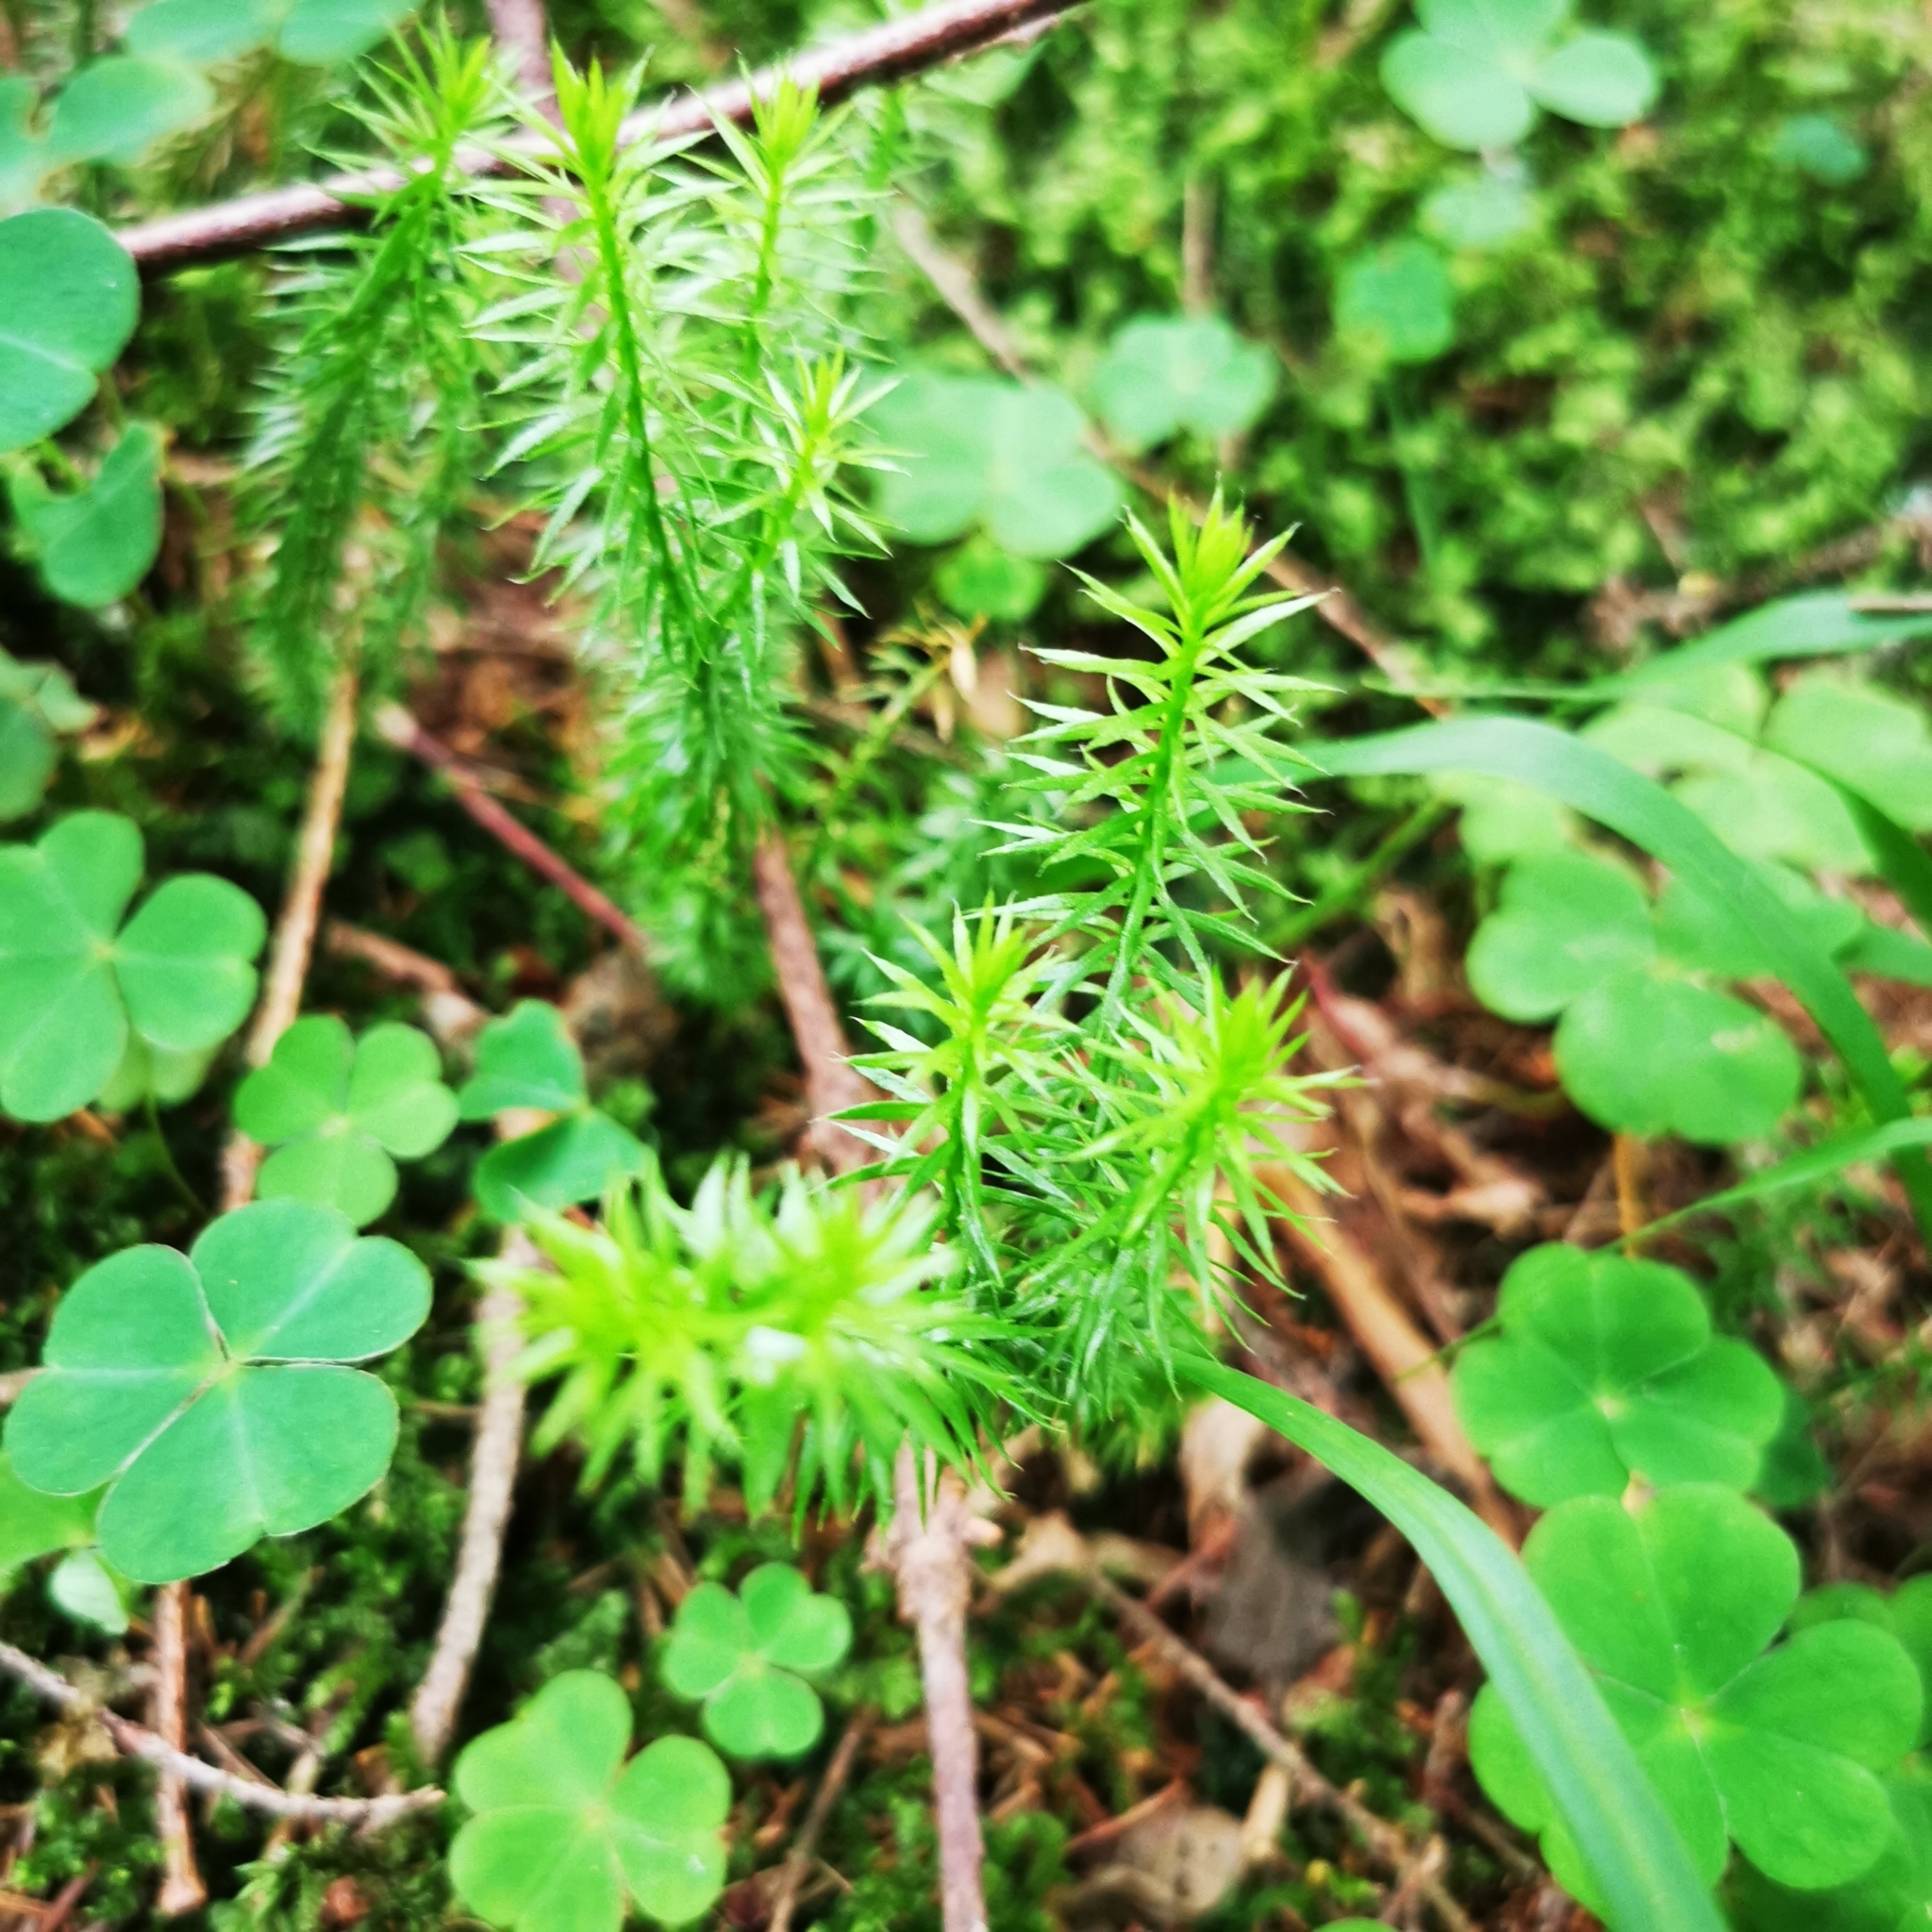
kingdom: Plantae
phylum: Tracheophyta
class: Lycopodiopsida
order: Lycopodiales
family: Lycopodiaceae
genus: Spinulum
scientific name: Spinulum annotinum
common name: Interrupted club-moss
